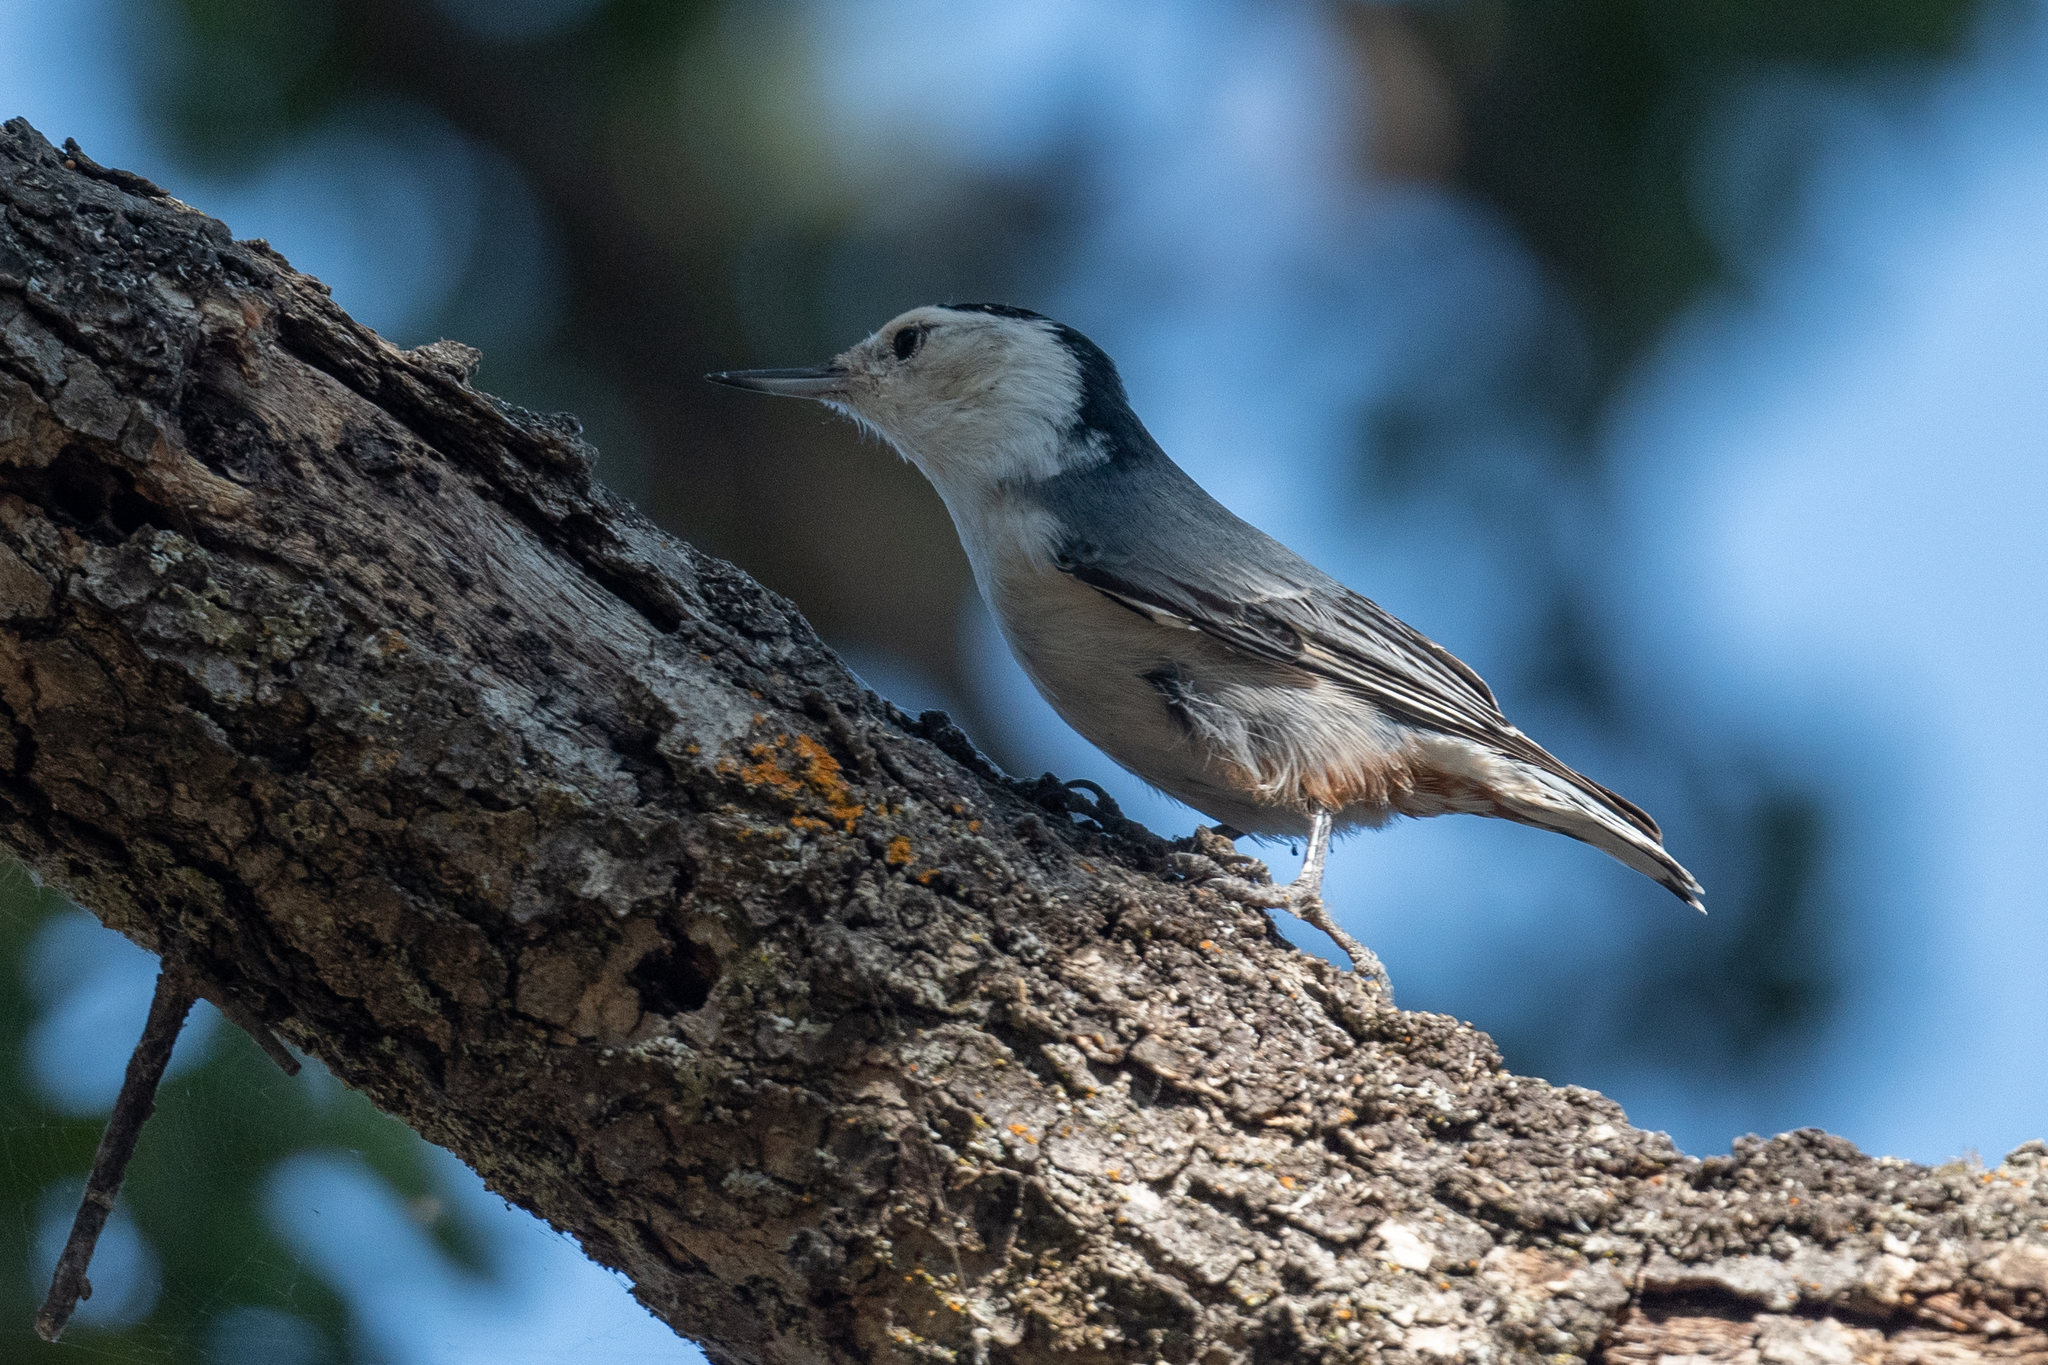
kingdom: Animalia
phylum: Chordata
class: Aves
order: Passeriformes
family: Sittidae
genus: Sitta
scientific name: Sitta carolinensis
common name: White-breasted nuthatch
